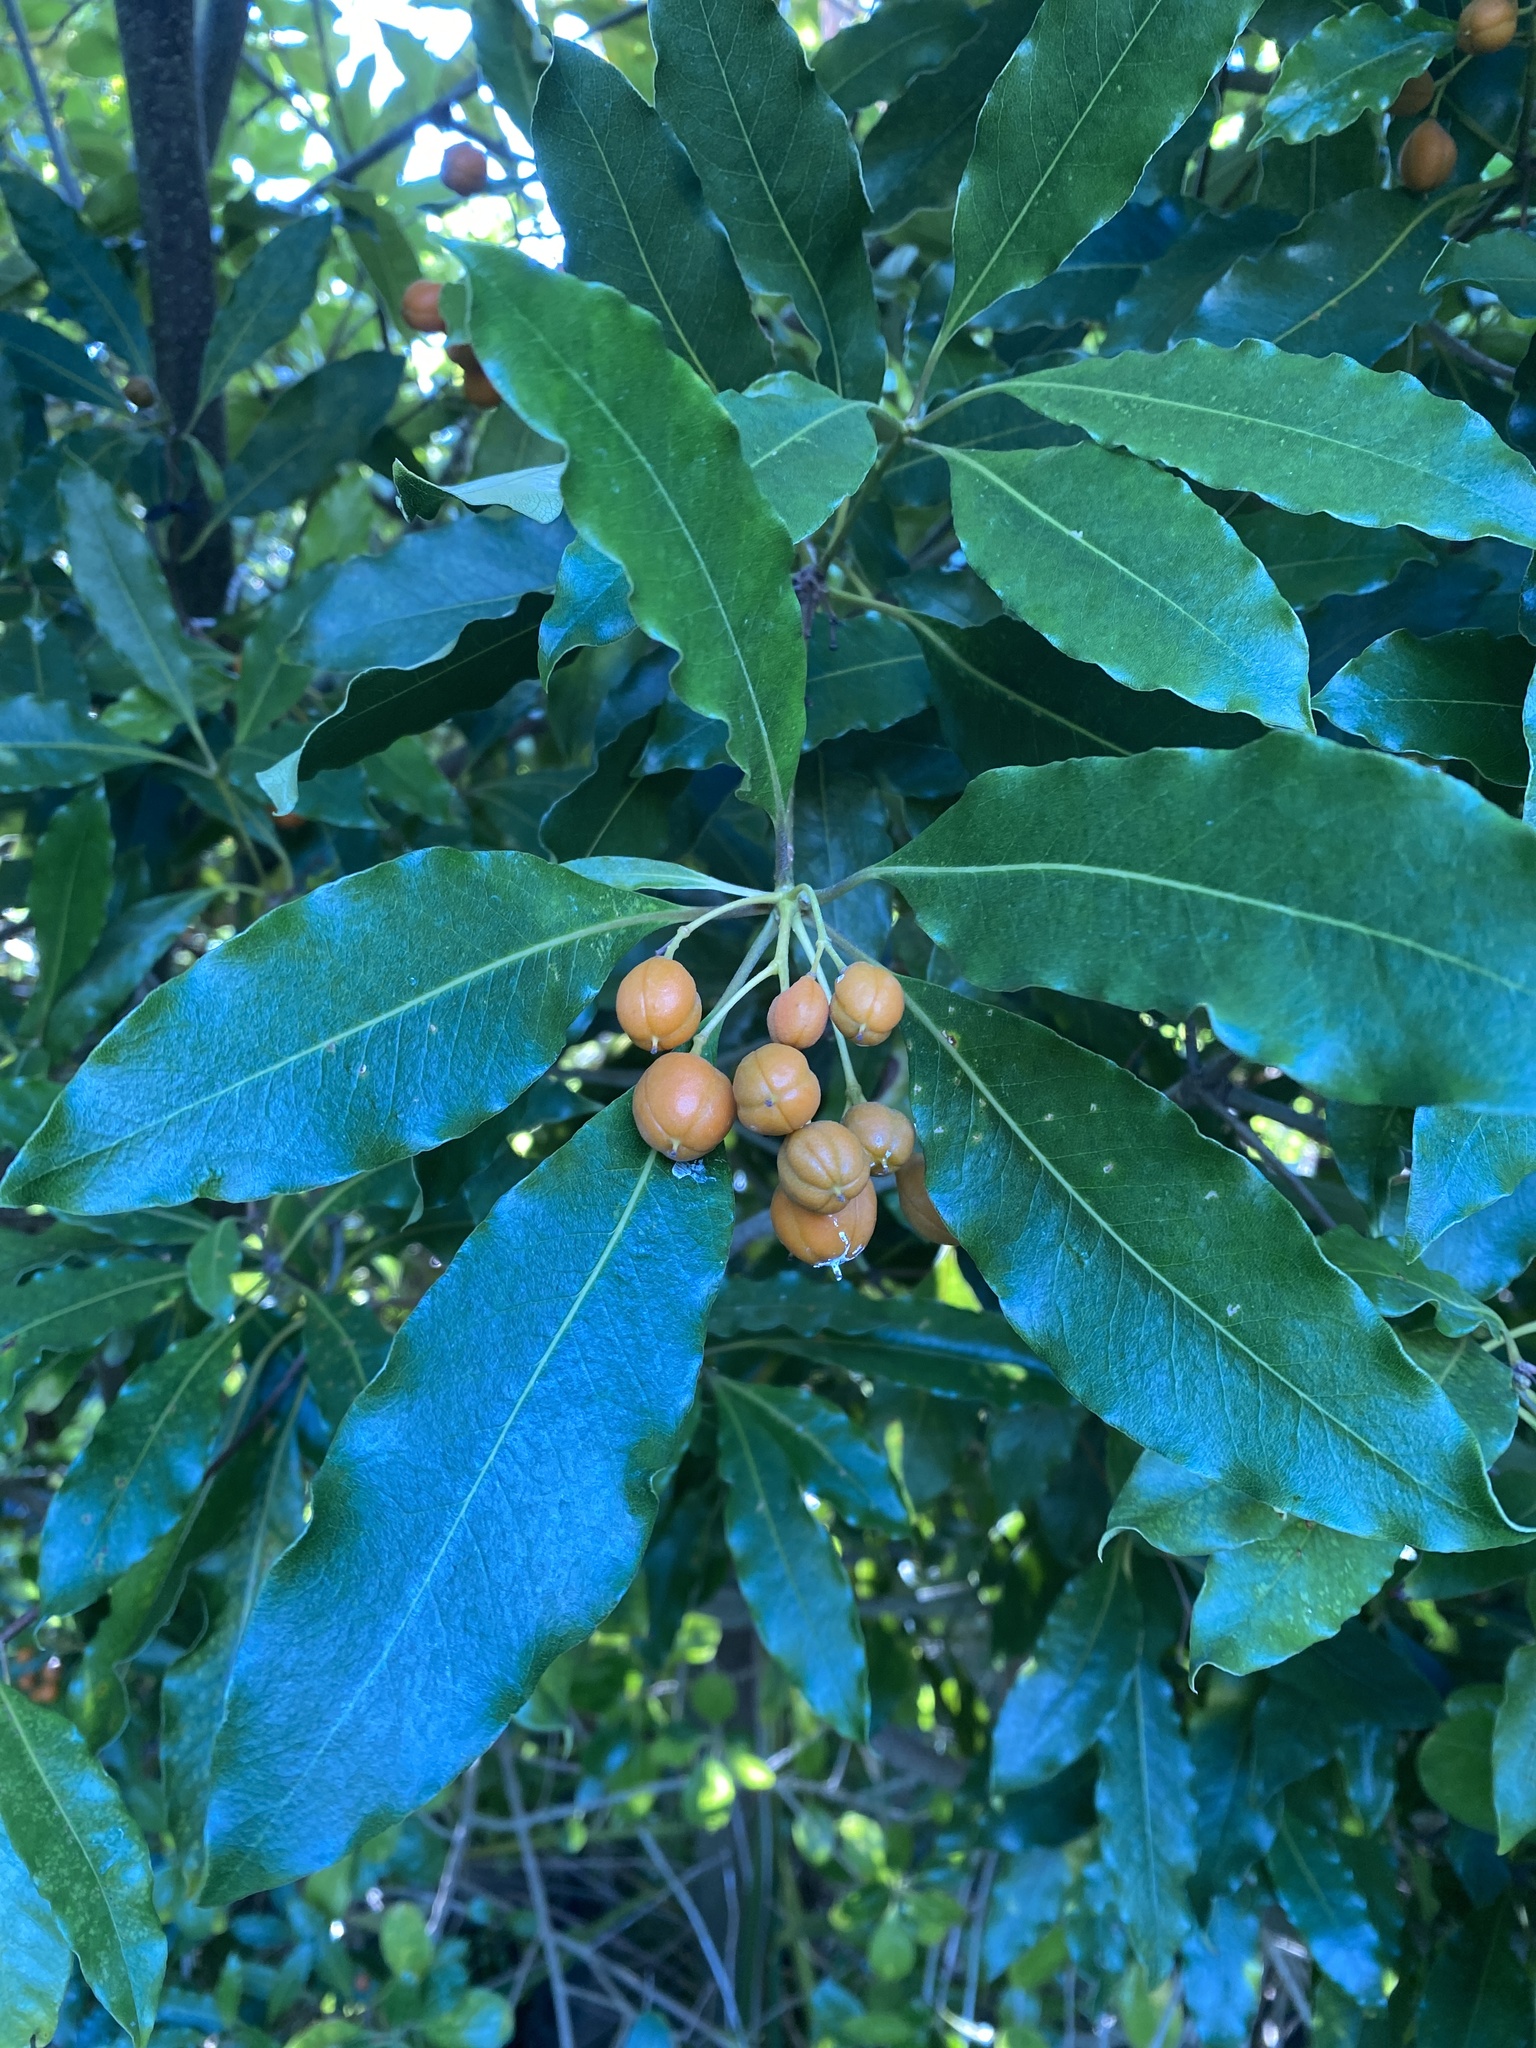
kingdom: Plantae
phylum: Tracheophyta
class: Magnoliopsida
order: Apiales
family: Pittosporaceae
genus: Pittosporum
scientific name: Pittosporum undulatum
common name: Australian cheesewood
